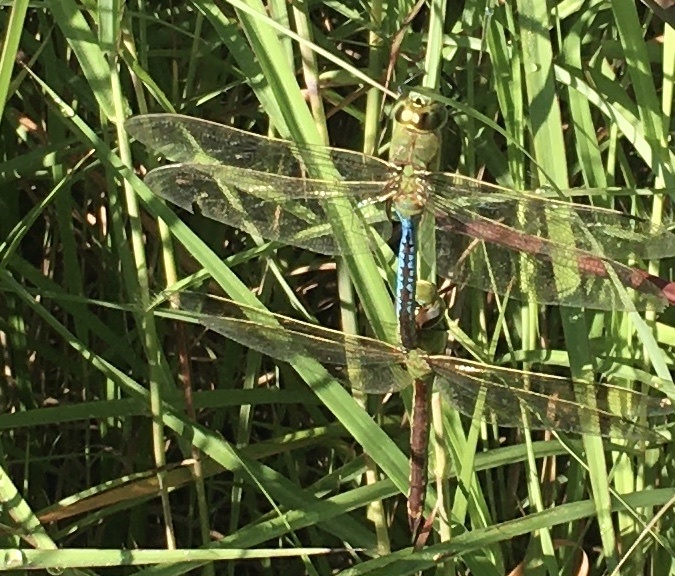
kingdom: Animalia
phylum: Arthropoda
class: Insecta
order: Odonata
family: Aeshnidae
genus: Anax
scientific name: Anax junius
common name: Common green darner
